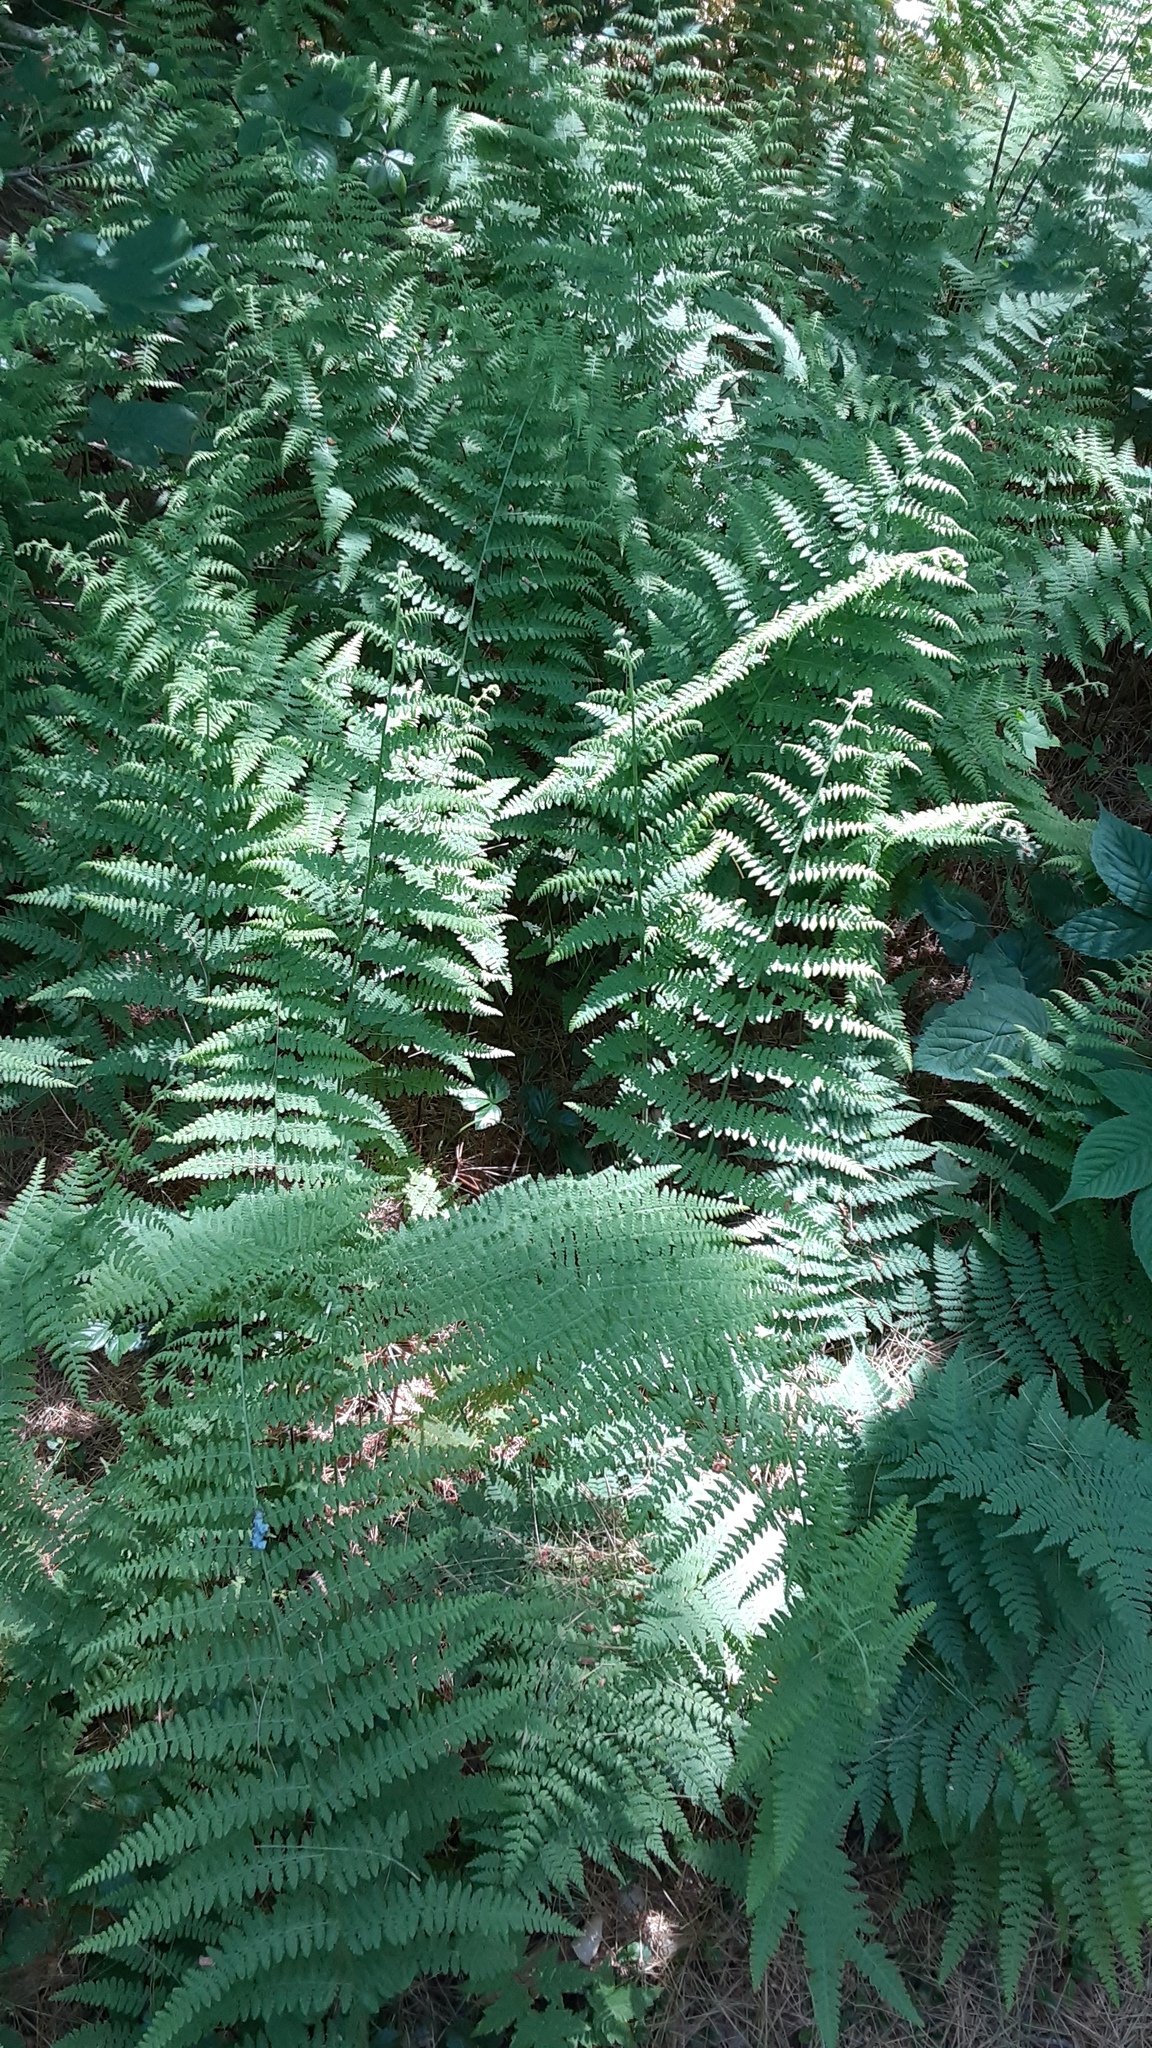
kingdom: Plantae
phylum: Tracheophyta
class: Polypodiopsida
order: Polypodiales
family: Dennstaedtiaceae
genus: Sitobolium
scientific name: Sitobolium punctilobum
